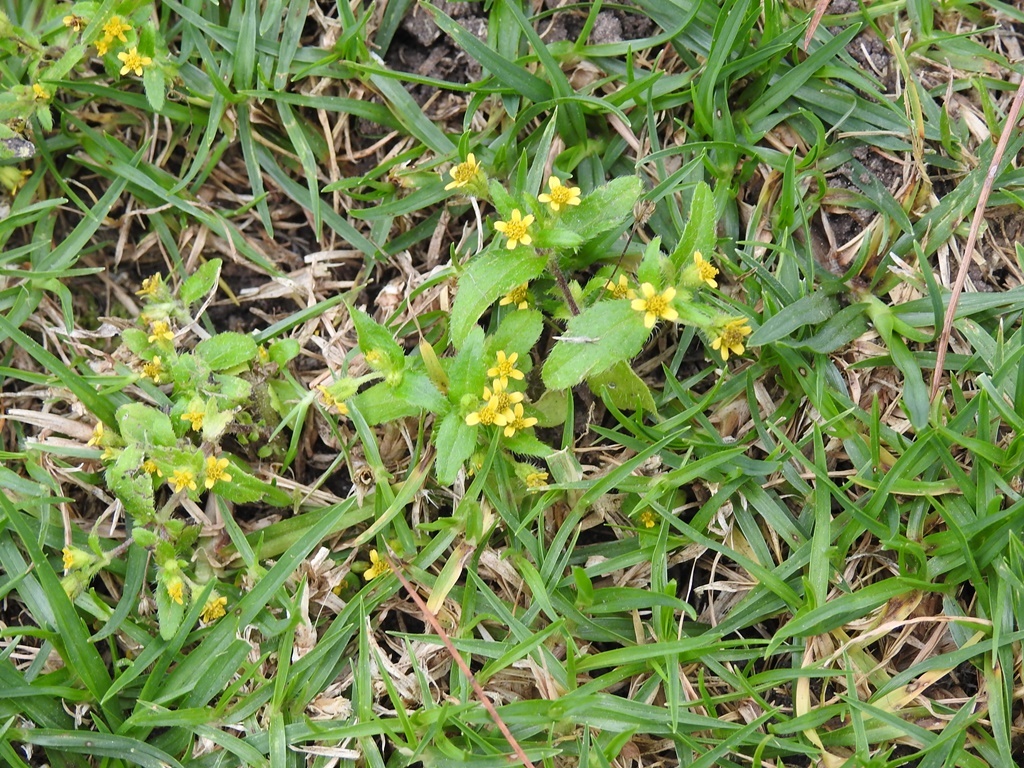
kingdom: Plantae
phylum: Tracheophyta
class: Magnoliopsida
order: Asterales
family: Asteraceae
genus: Jaegeria
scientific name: Jaegeria hirta
